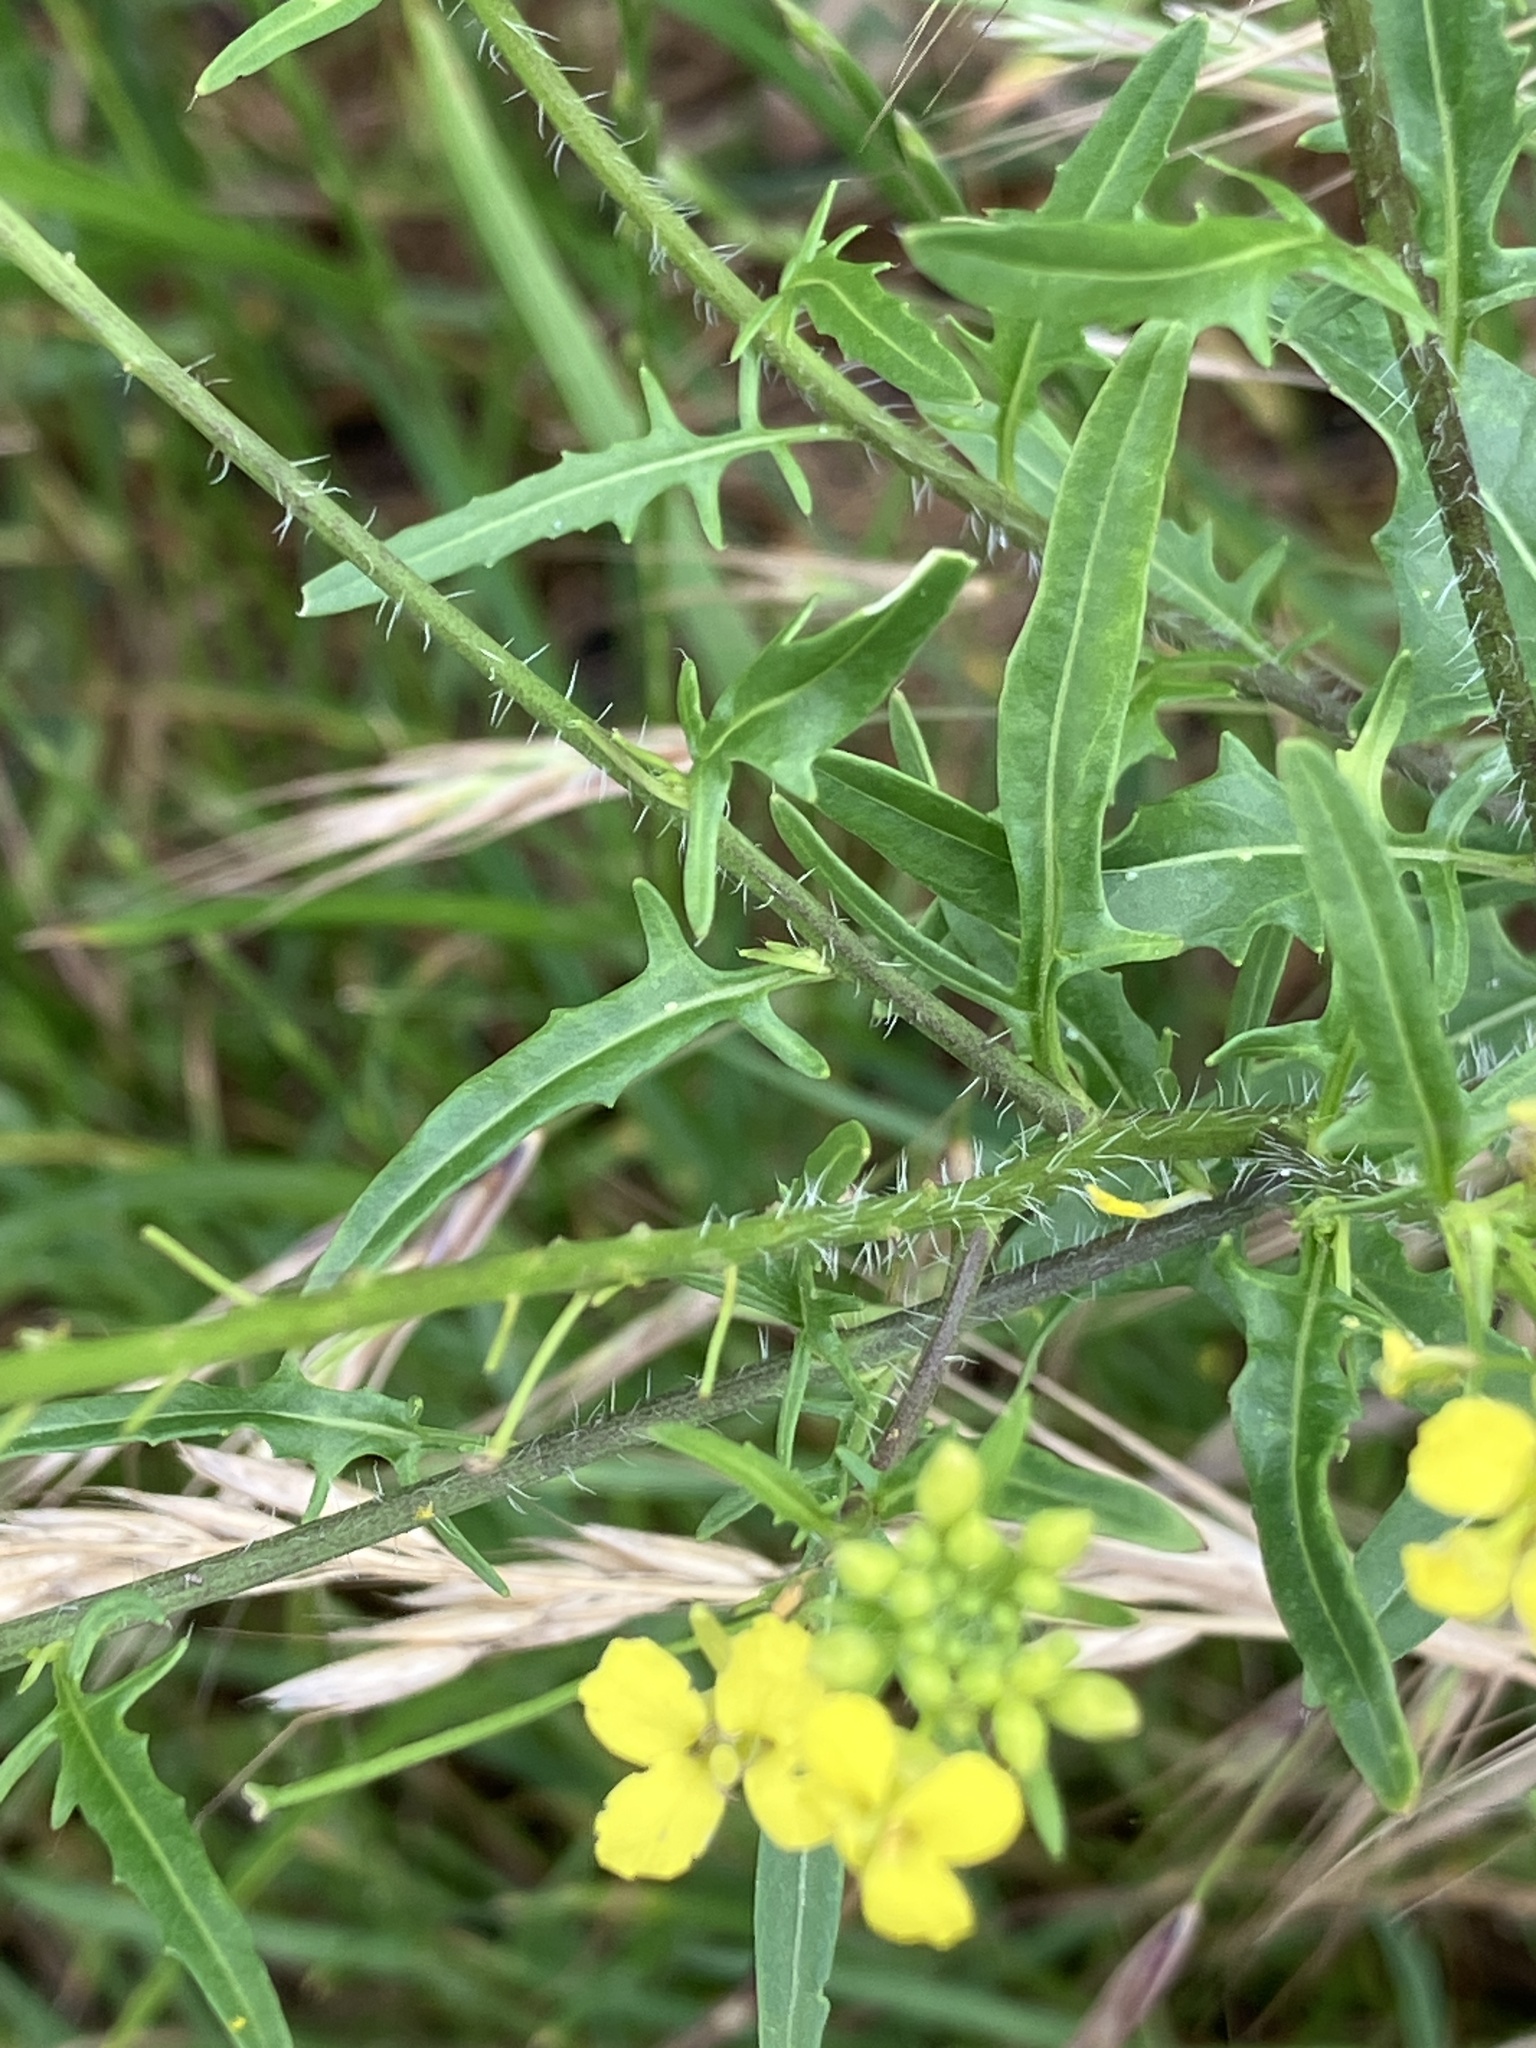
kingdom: Plantae
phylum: Tracheophyta
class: Magnoliopsida
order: Brassicales
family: Brassicaceae
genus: Sisymbrium
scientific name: Sisymbrium loeselii
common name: False london-rocket
